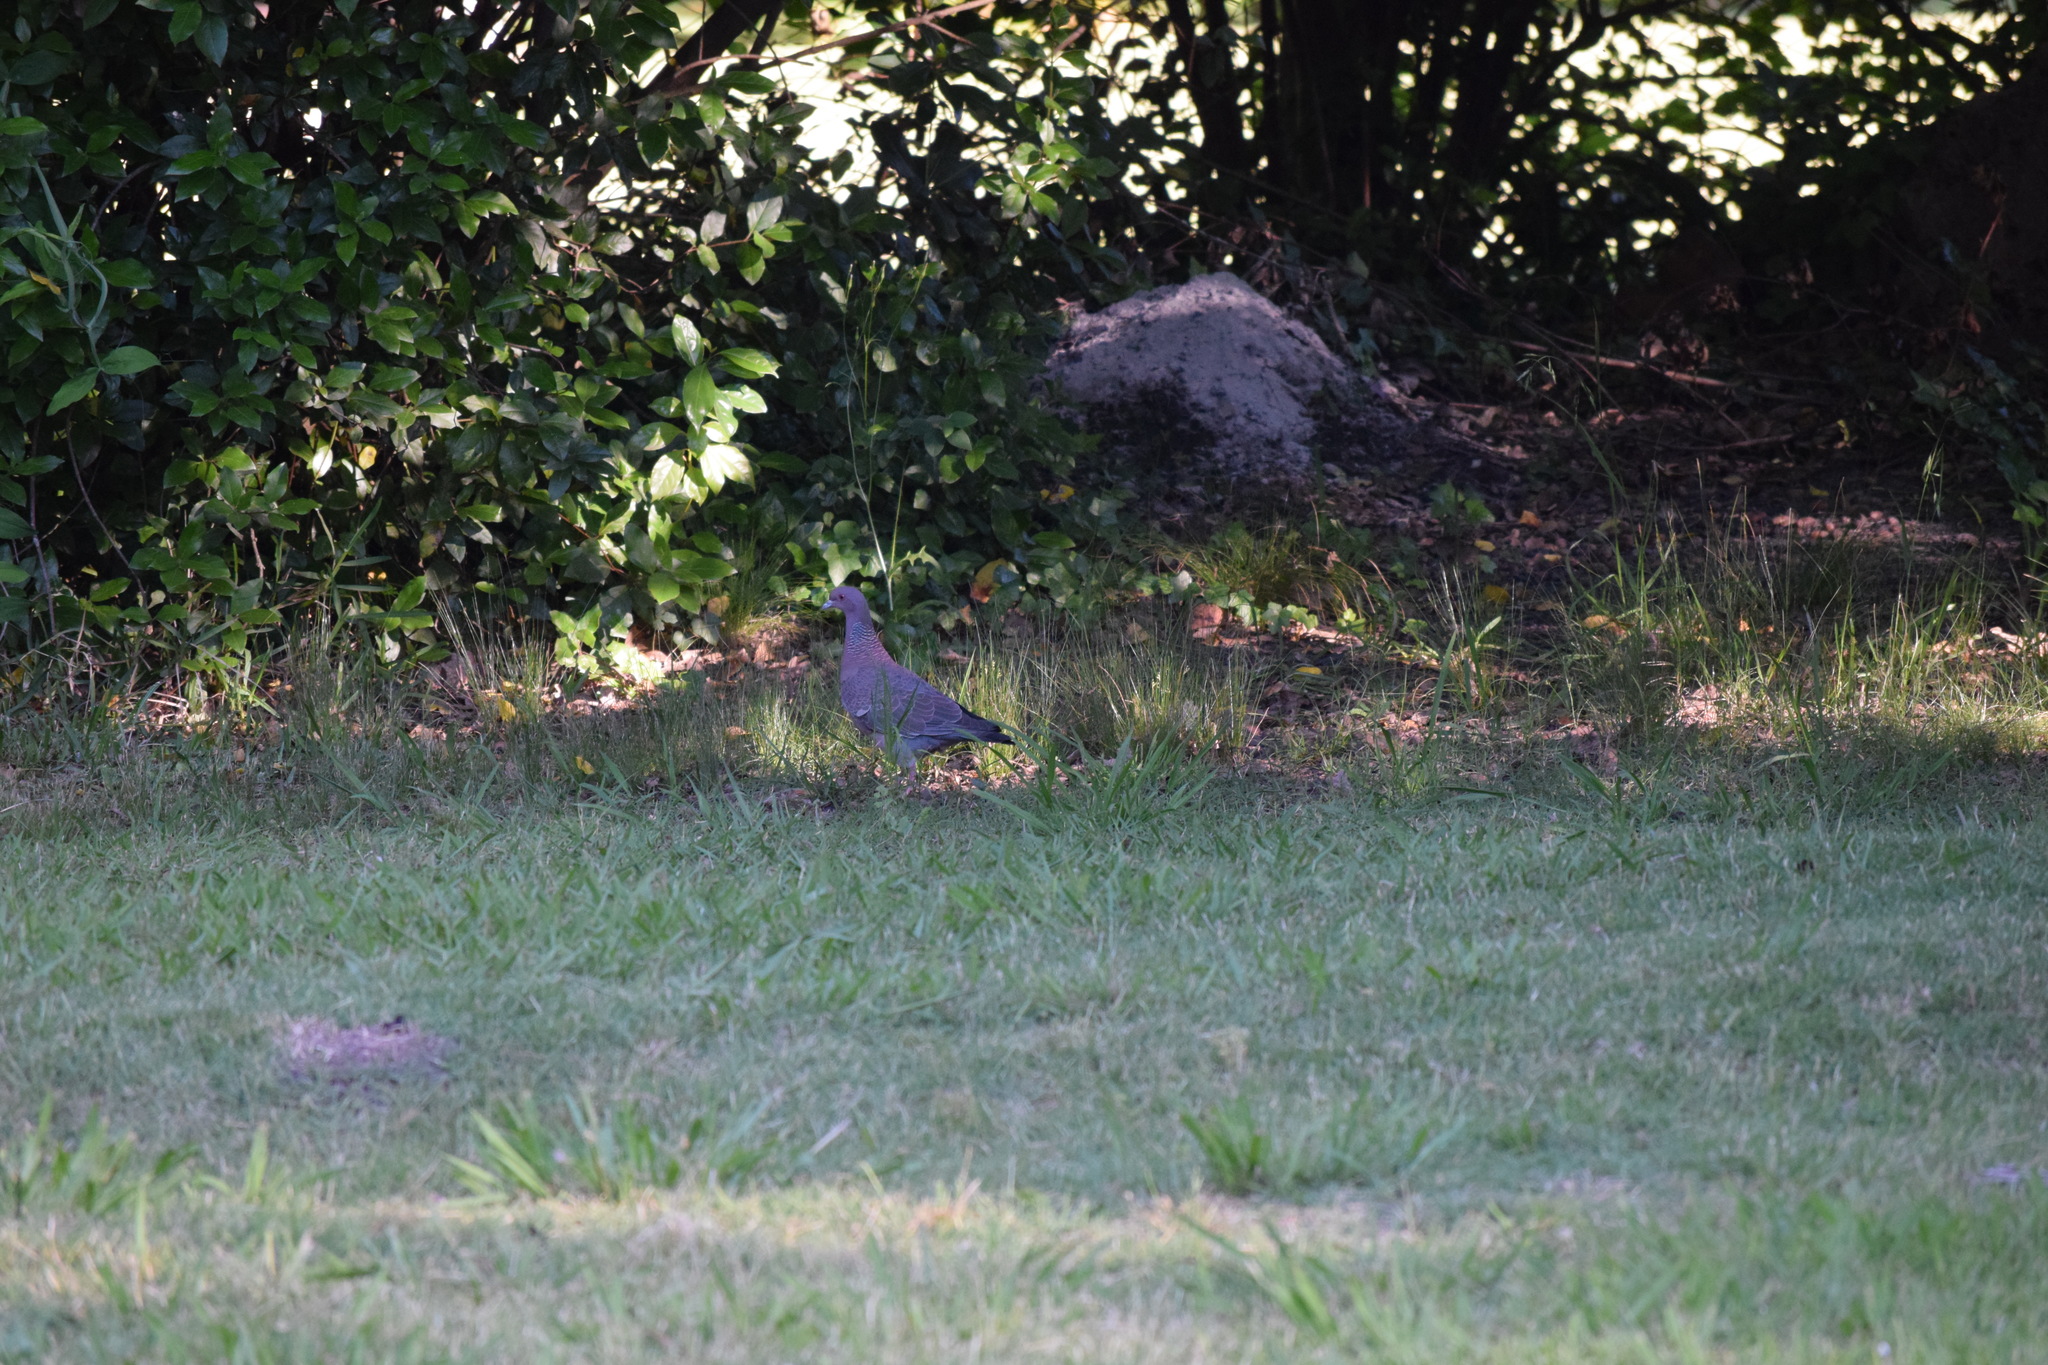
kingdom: Animalia
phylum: Chordata
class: Aves
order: Columbiformes
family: Columbidae
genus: Patagioenas
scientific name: Patagioenas picazuro
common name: Picazuro pigeon
